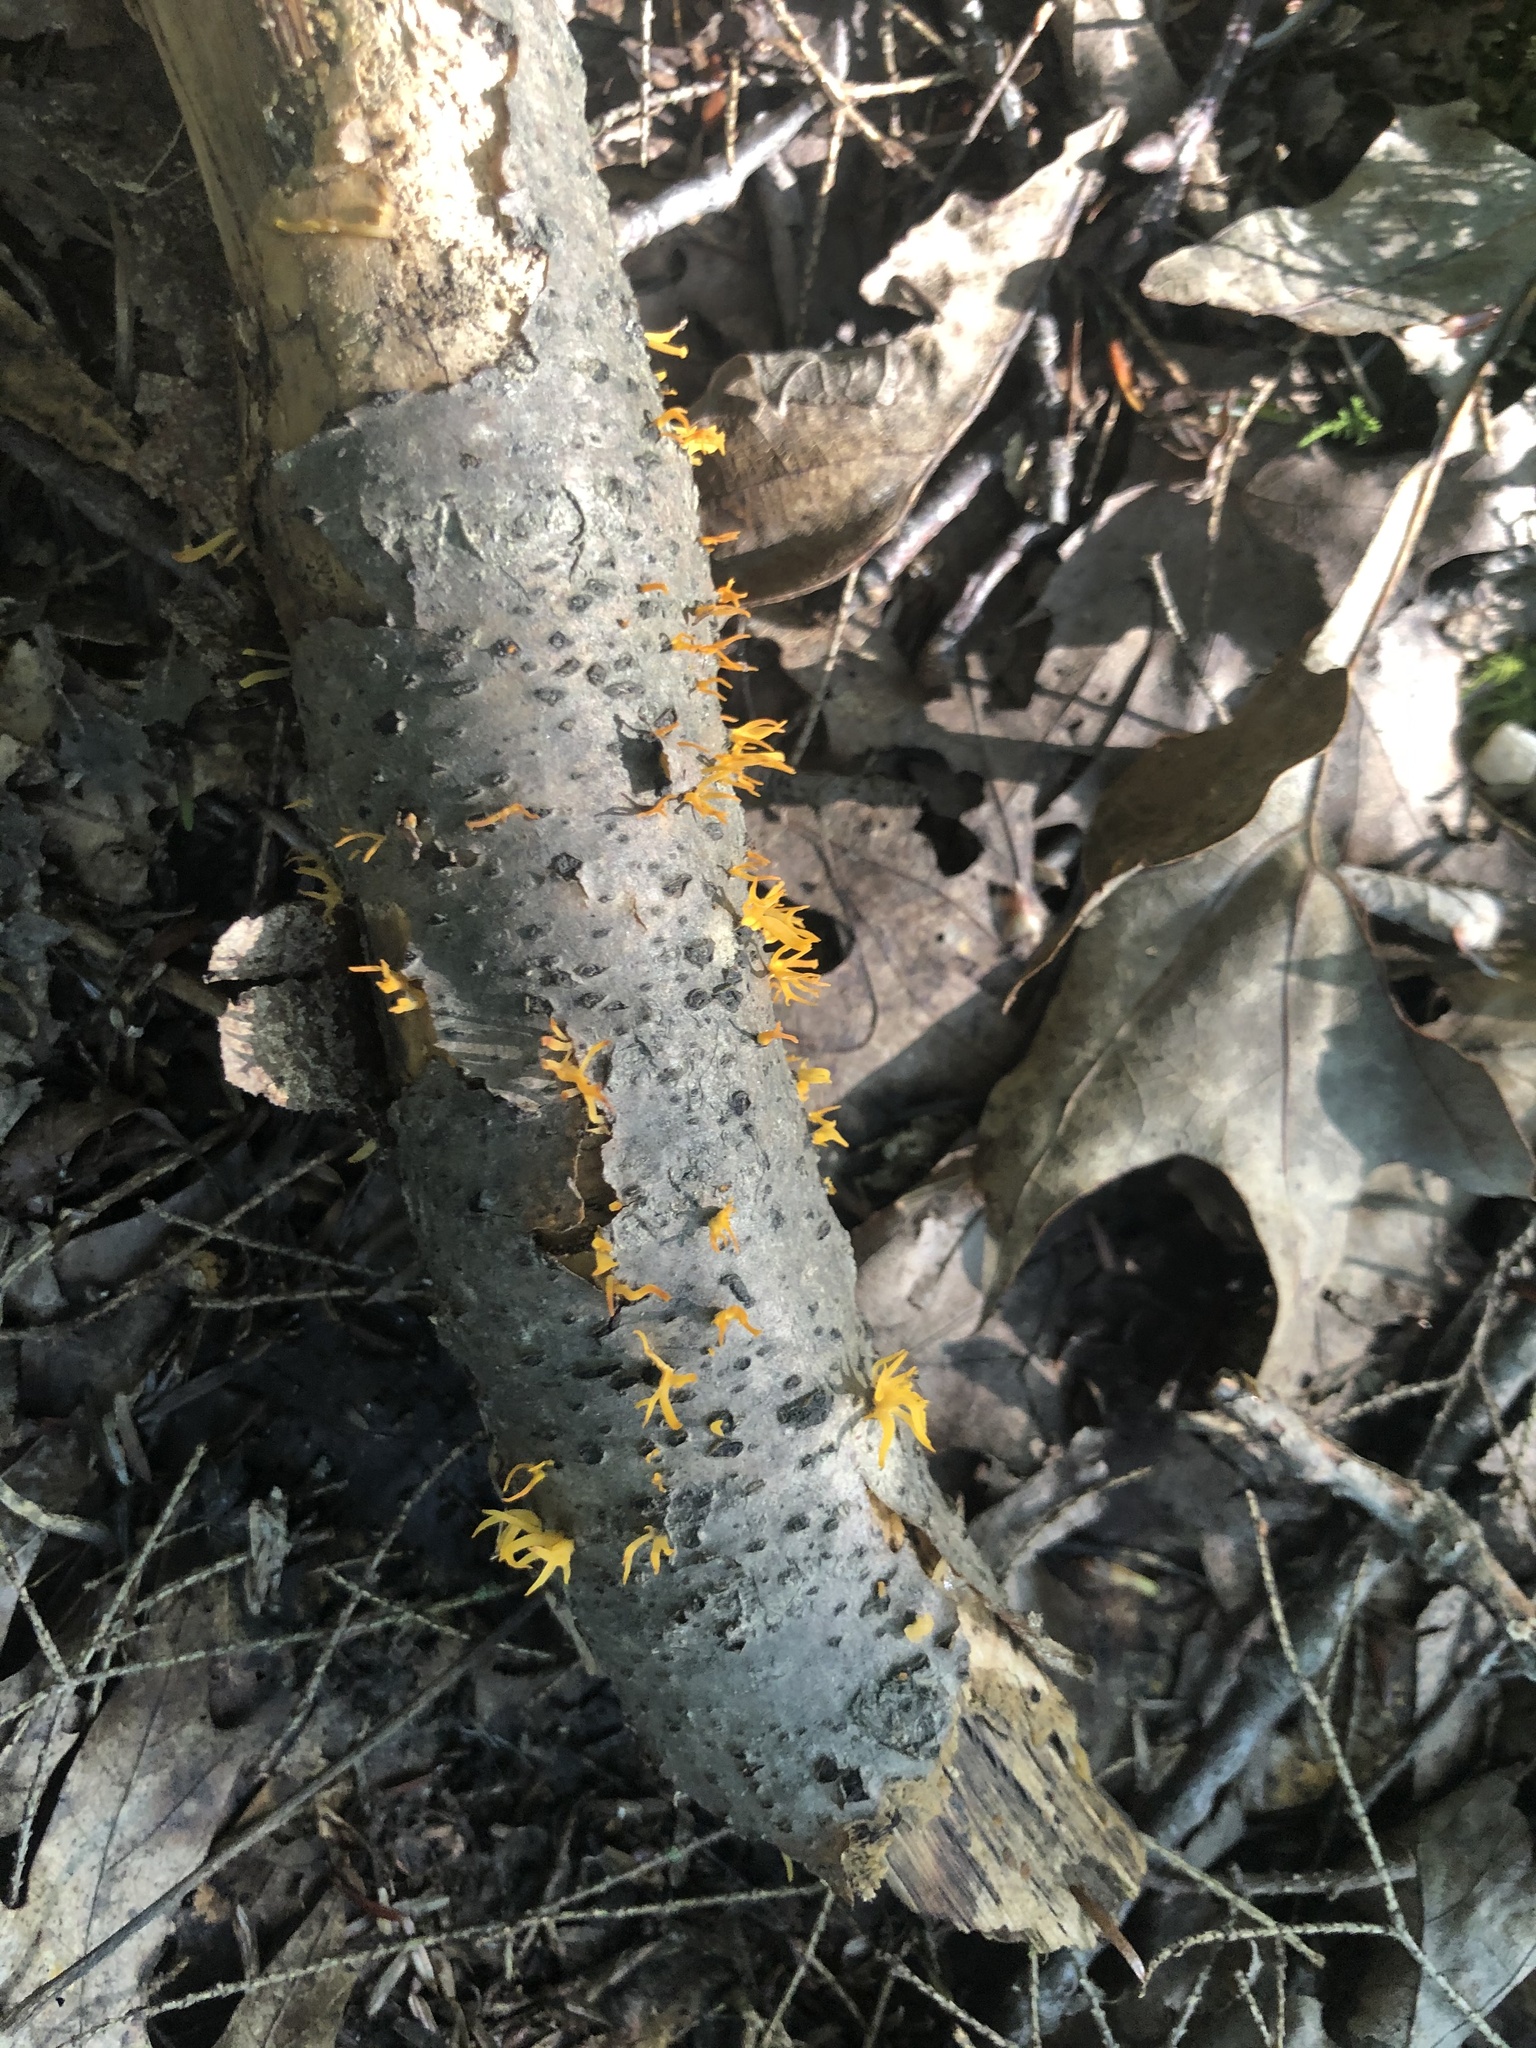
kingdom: Fungi
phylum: Basidiomycota
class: Agaricomycetes
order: Agaricales
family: Clavariaceae
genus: Clavulinopsis
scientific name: Clavulinopsis fusiformis
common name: Golden spindles
